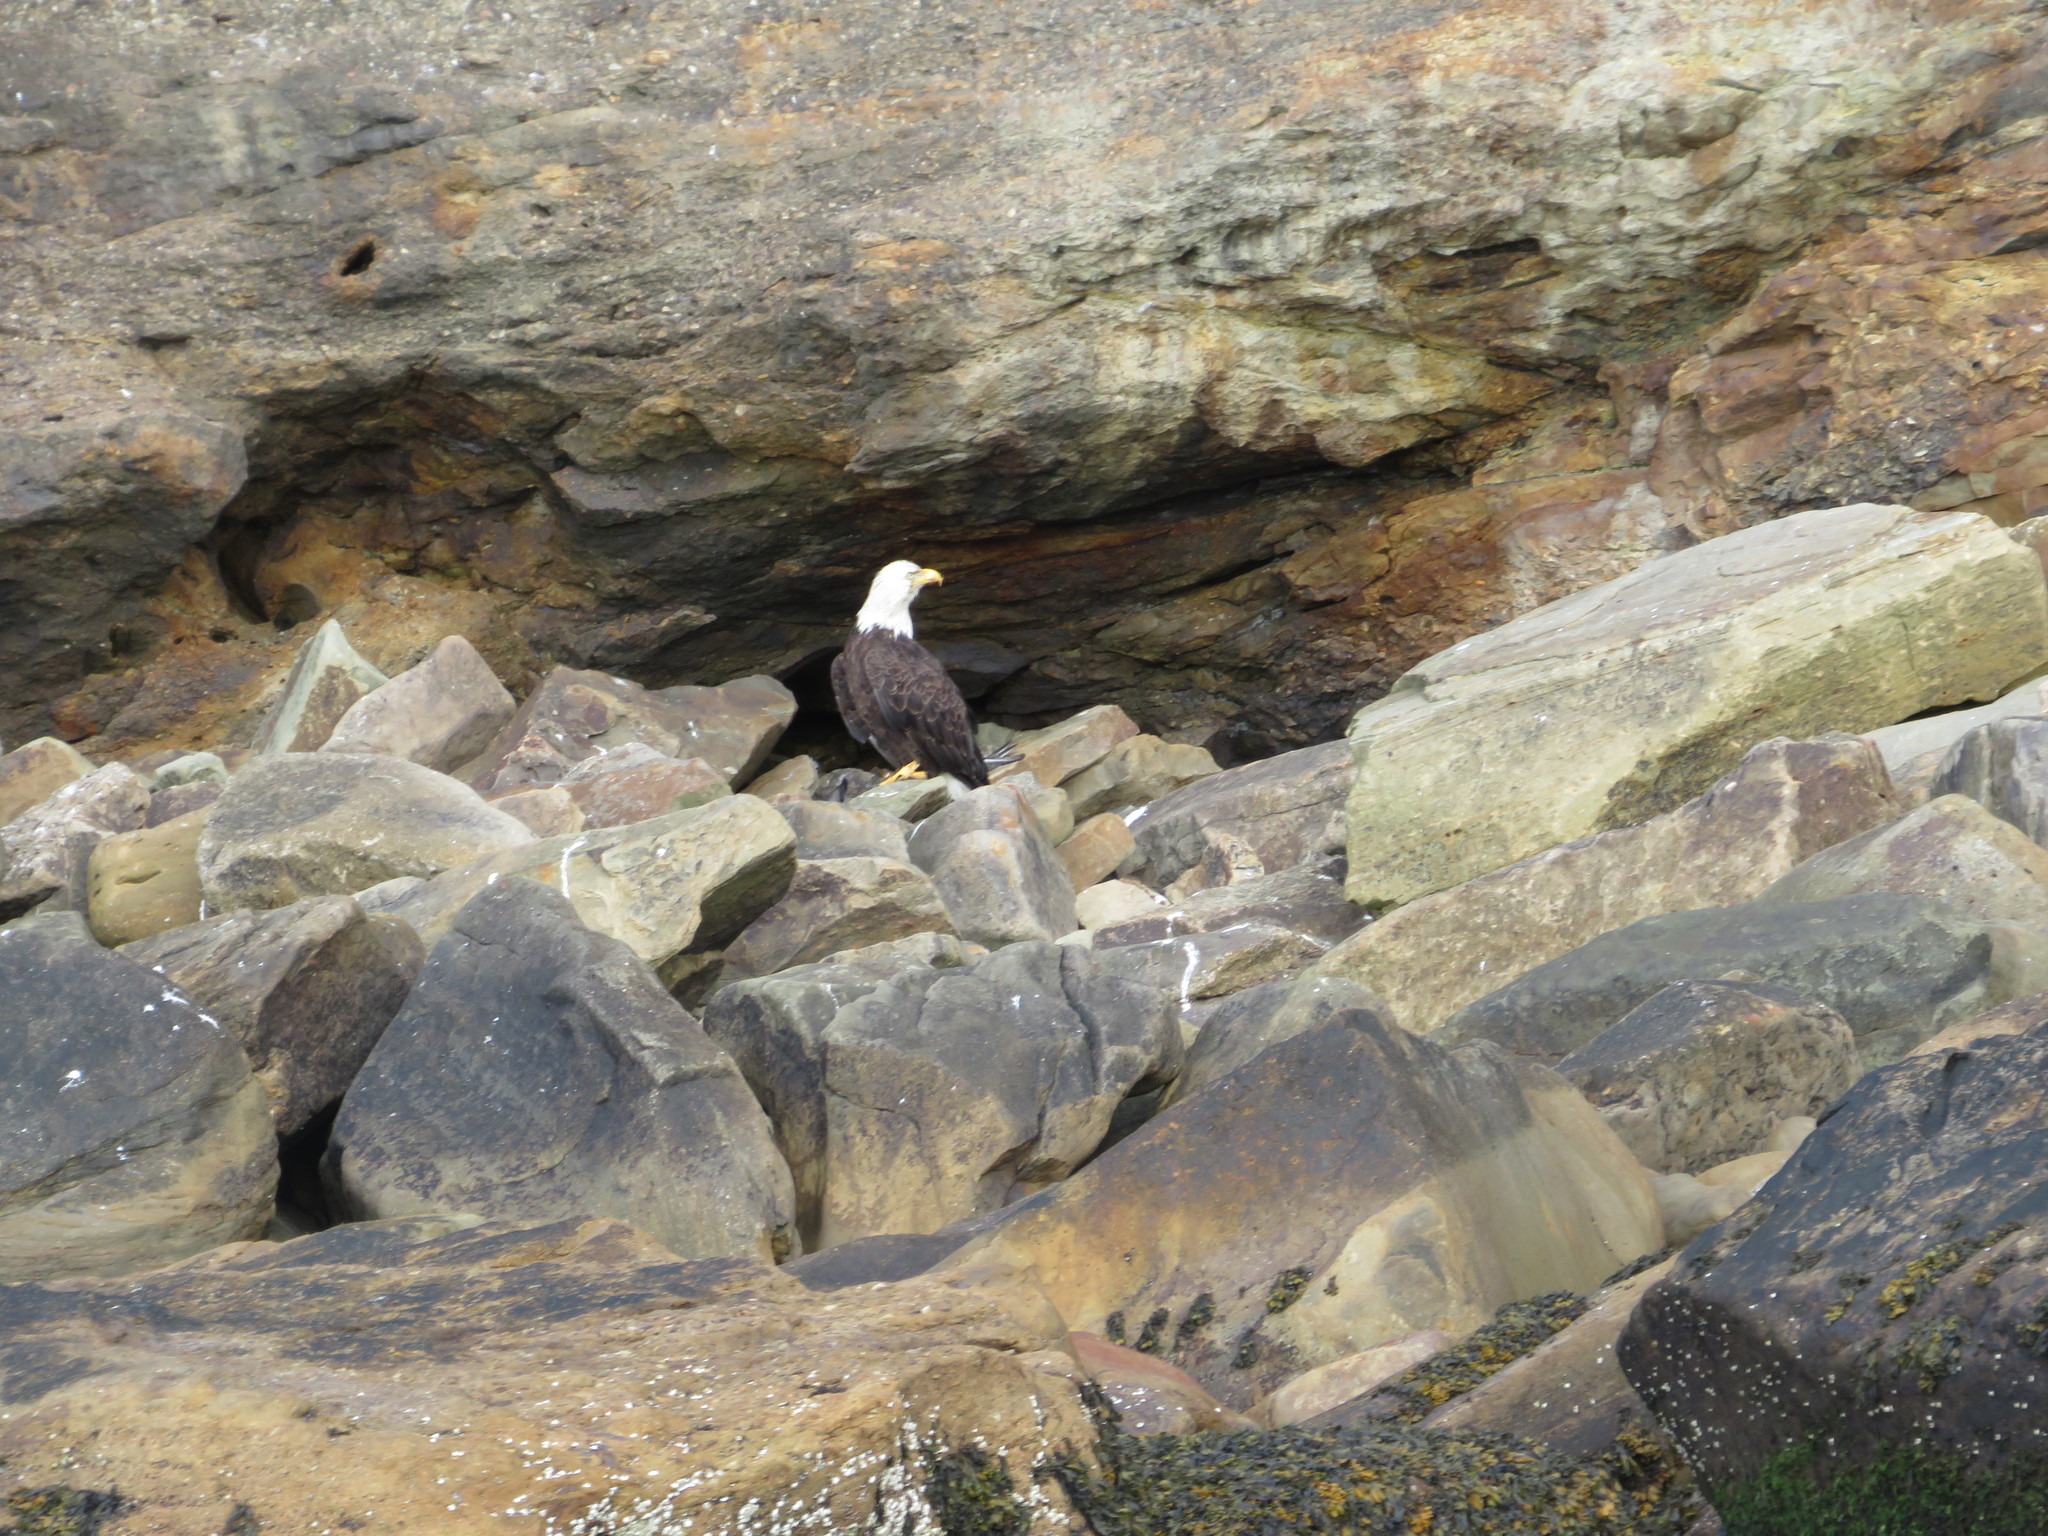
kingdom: Animalia
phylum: Chordata
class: Aves
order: Accipitriformes
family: Accipitridae
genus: Haliaeetus
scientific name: Haliaeetus leucocephalus
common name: Bald eagle
